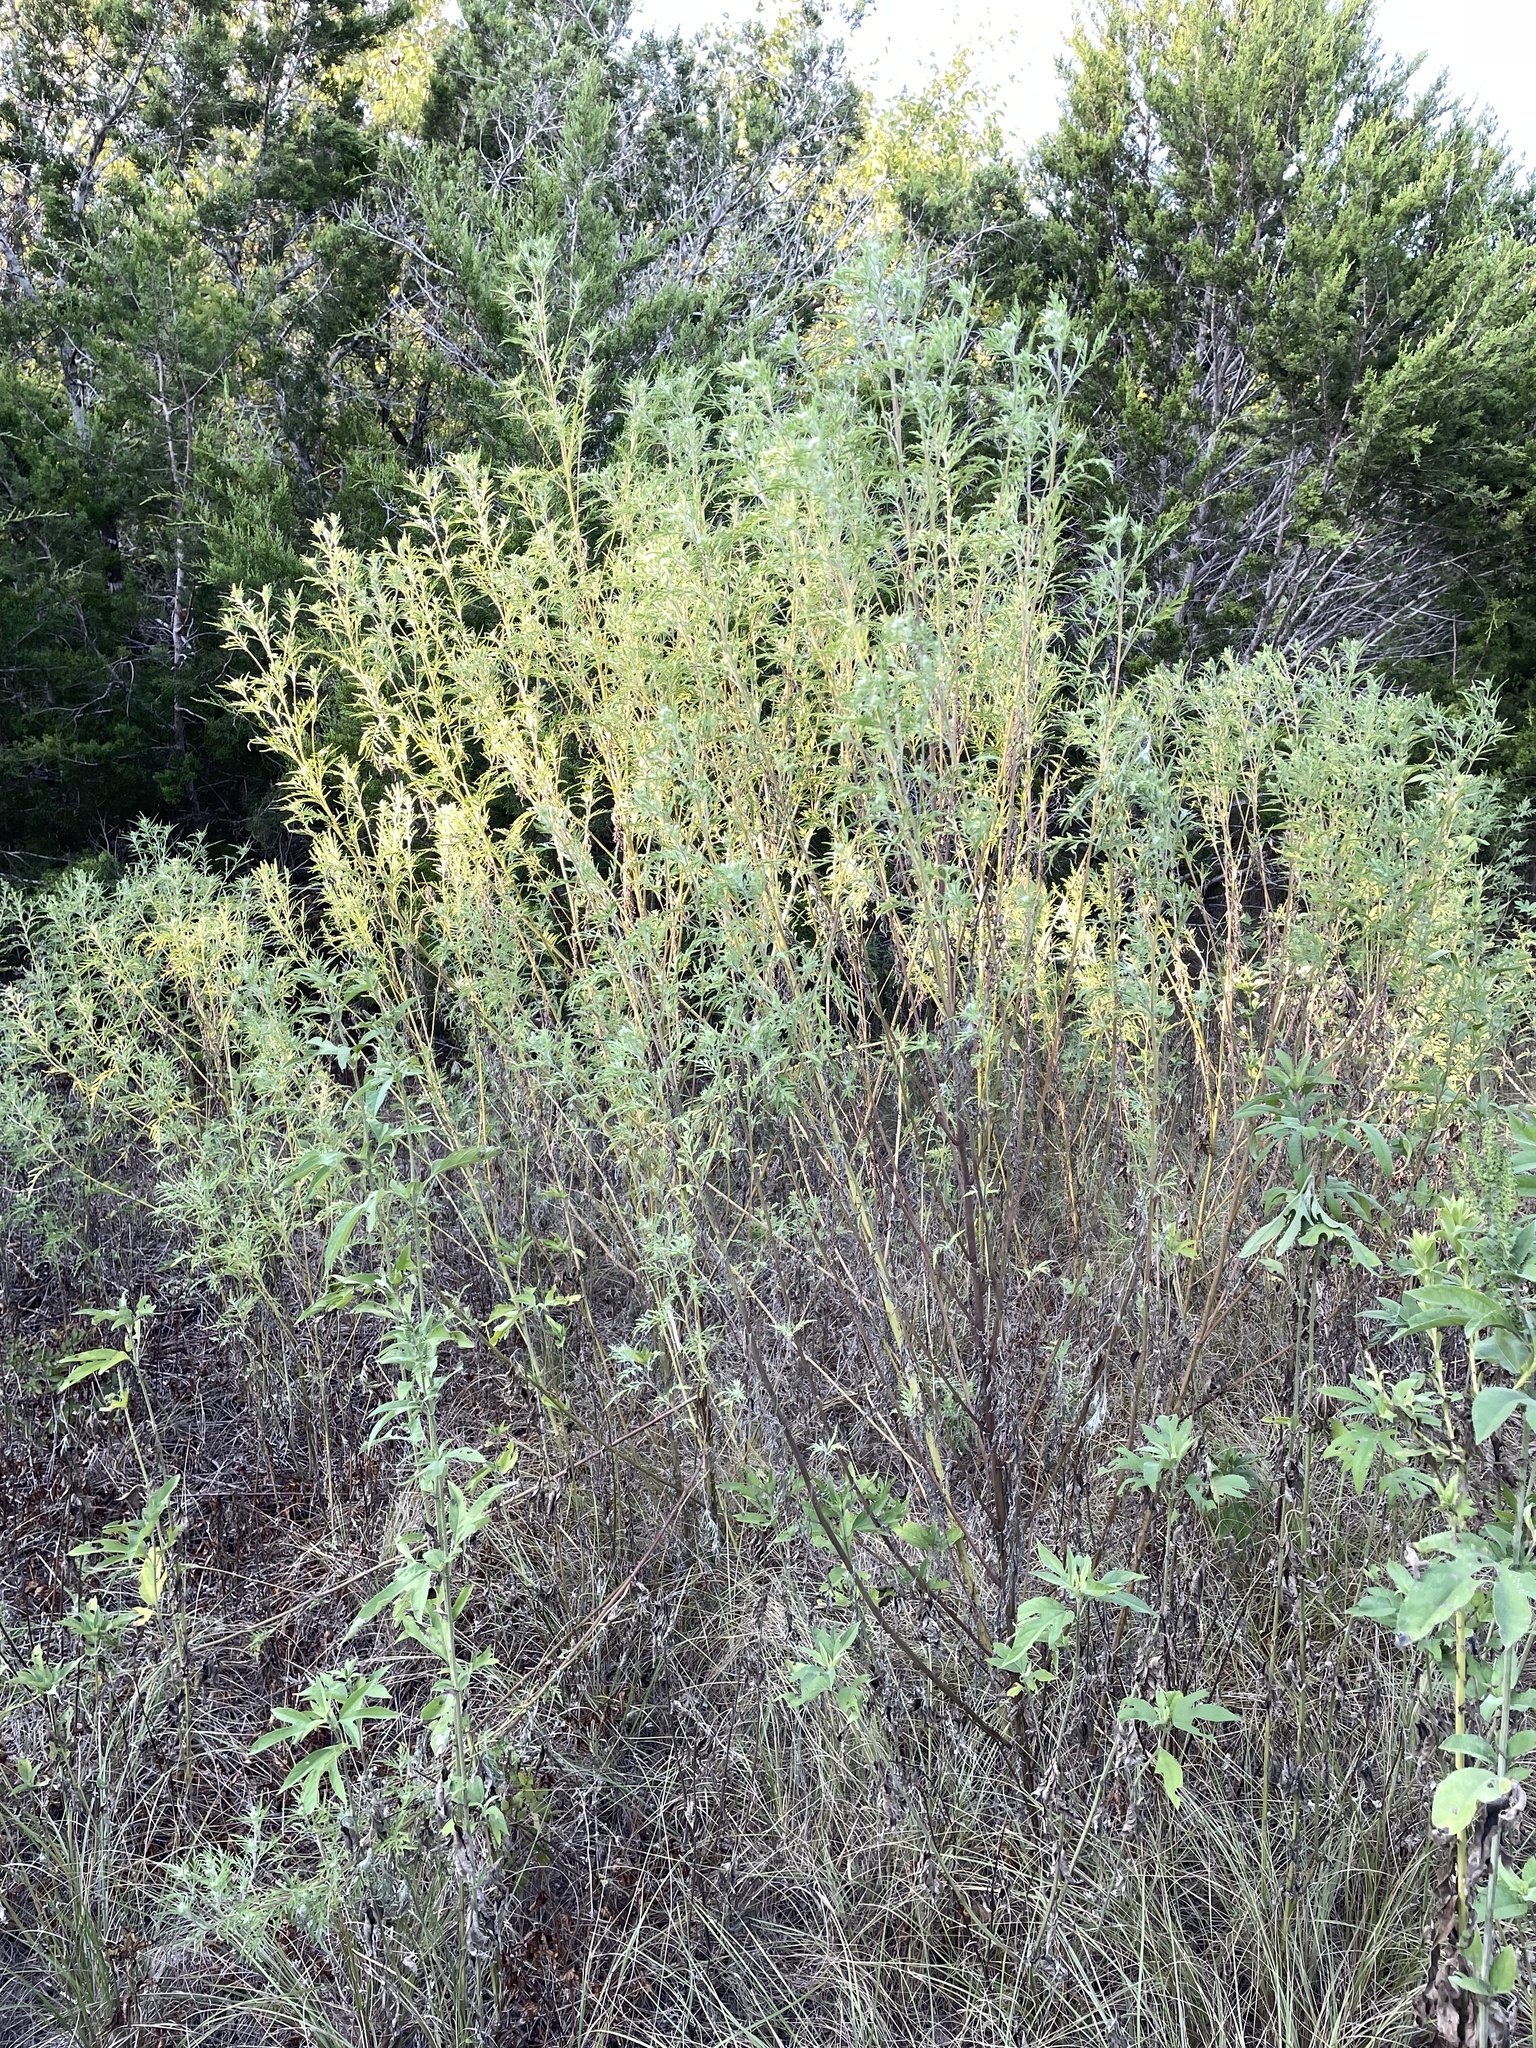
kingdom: Plantae
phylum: Tracheophyta
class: Magnoliopsida
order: Asterales
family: Asteraceae
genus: Ambrosia
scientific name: Ambrosia artemisiifolia
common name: Annual ragweed
